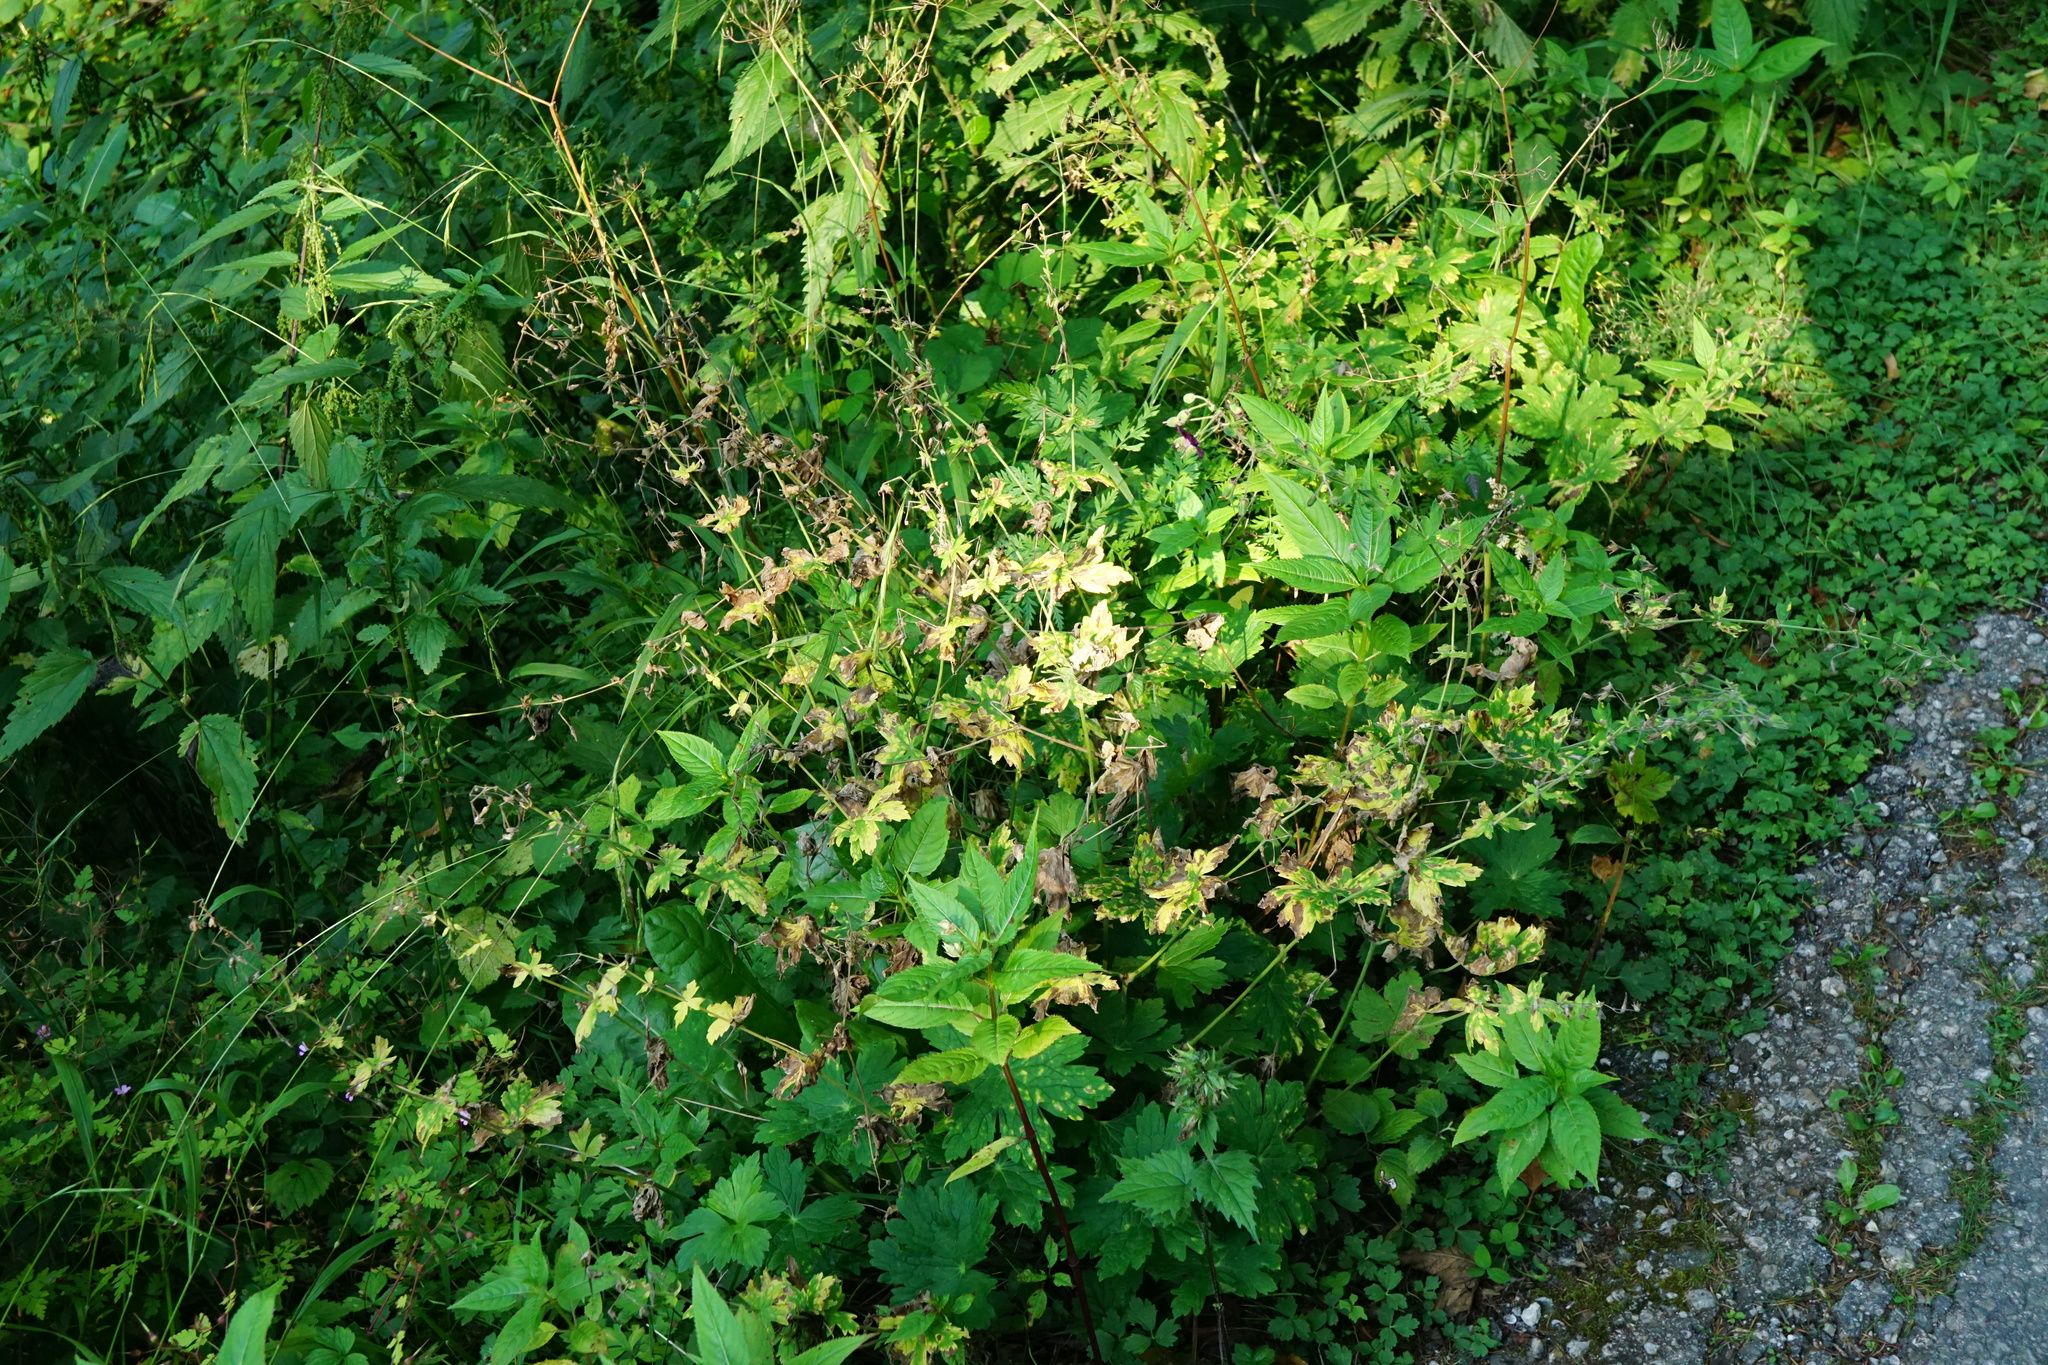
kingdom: Plantae
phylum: Tracheophyta
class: Magnoliopsida
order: Geraniales
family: Geraniaceae
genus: Geranium
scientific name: Geranium phaeum
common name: Dusky crane's-bill
